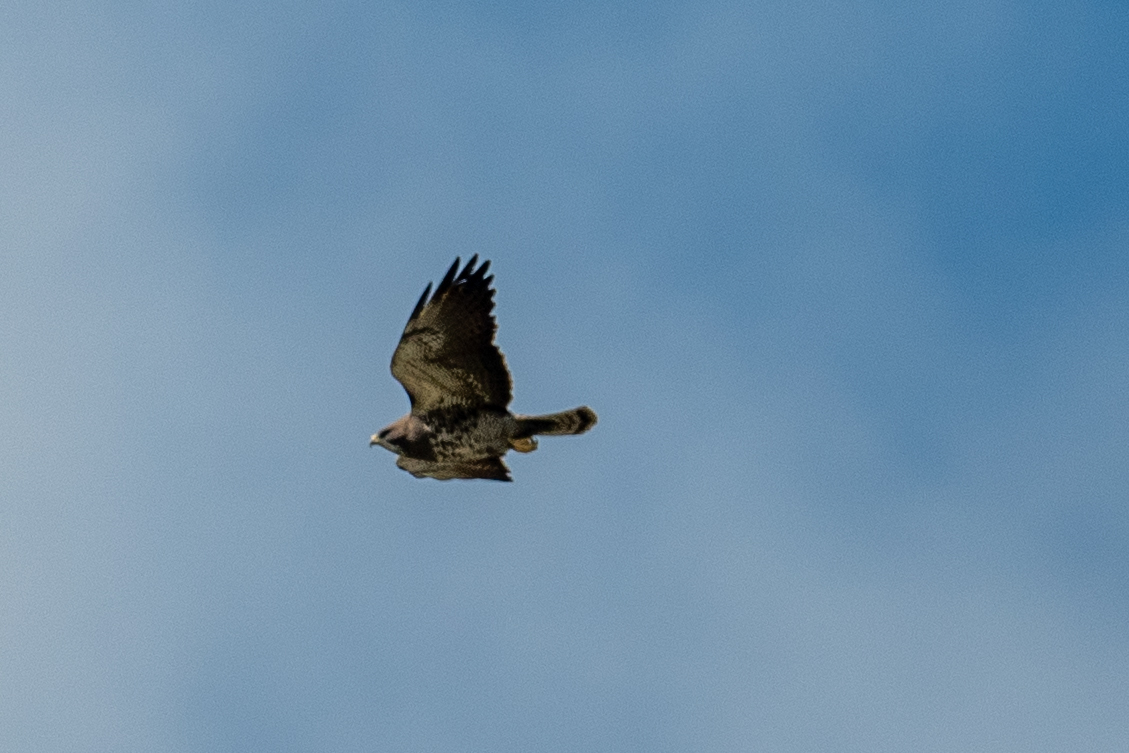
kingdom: Animalia
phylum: Chordata
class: Aves
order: Accipitriformes
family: Accipitridae
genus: Buteo
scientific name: Buteo swainsoni
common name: Swainson's hawk
